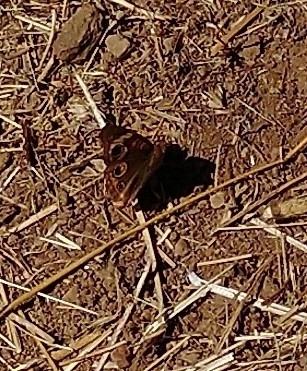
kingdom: Animalia
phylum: Arthropoda
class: Insecta
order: Lepidoptera
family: Nymphalidae
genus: Junonia
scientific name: Junonia grisea
